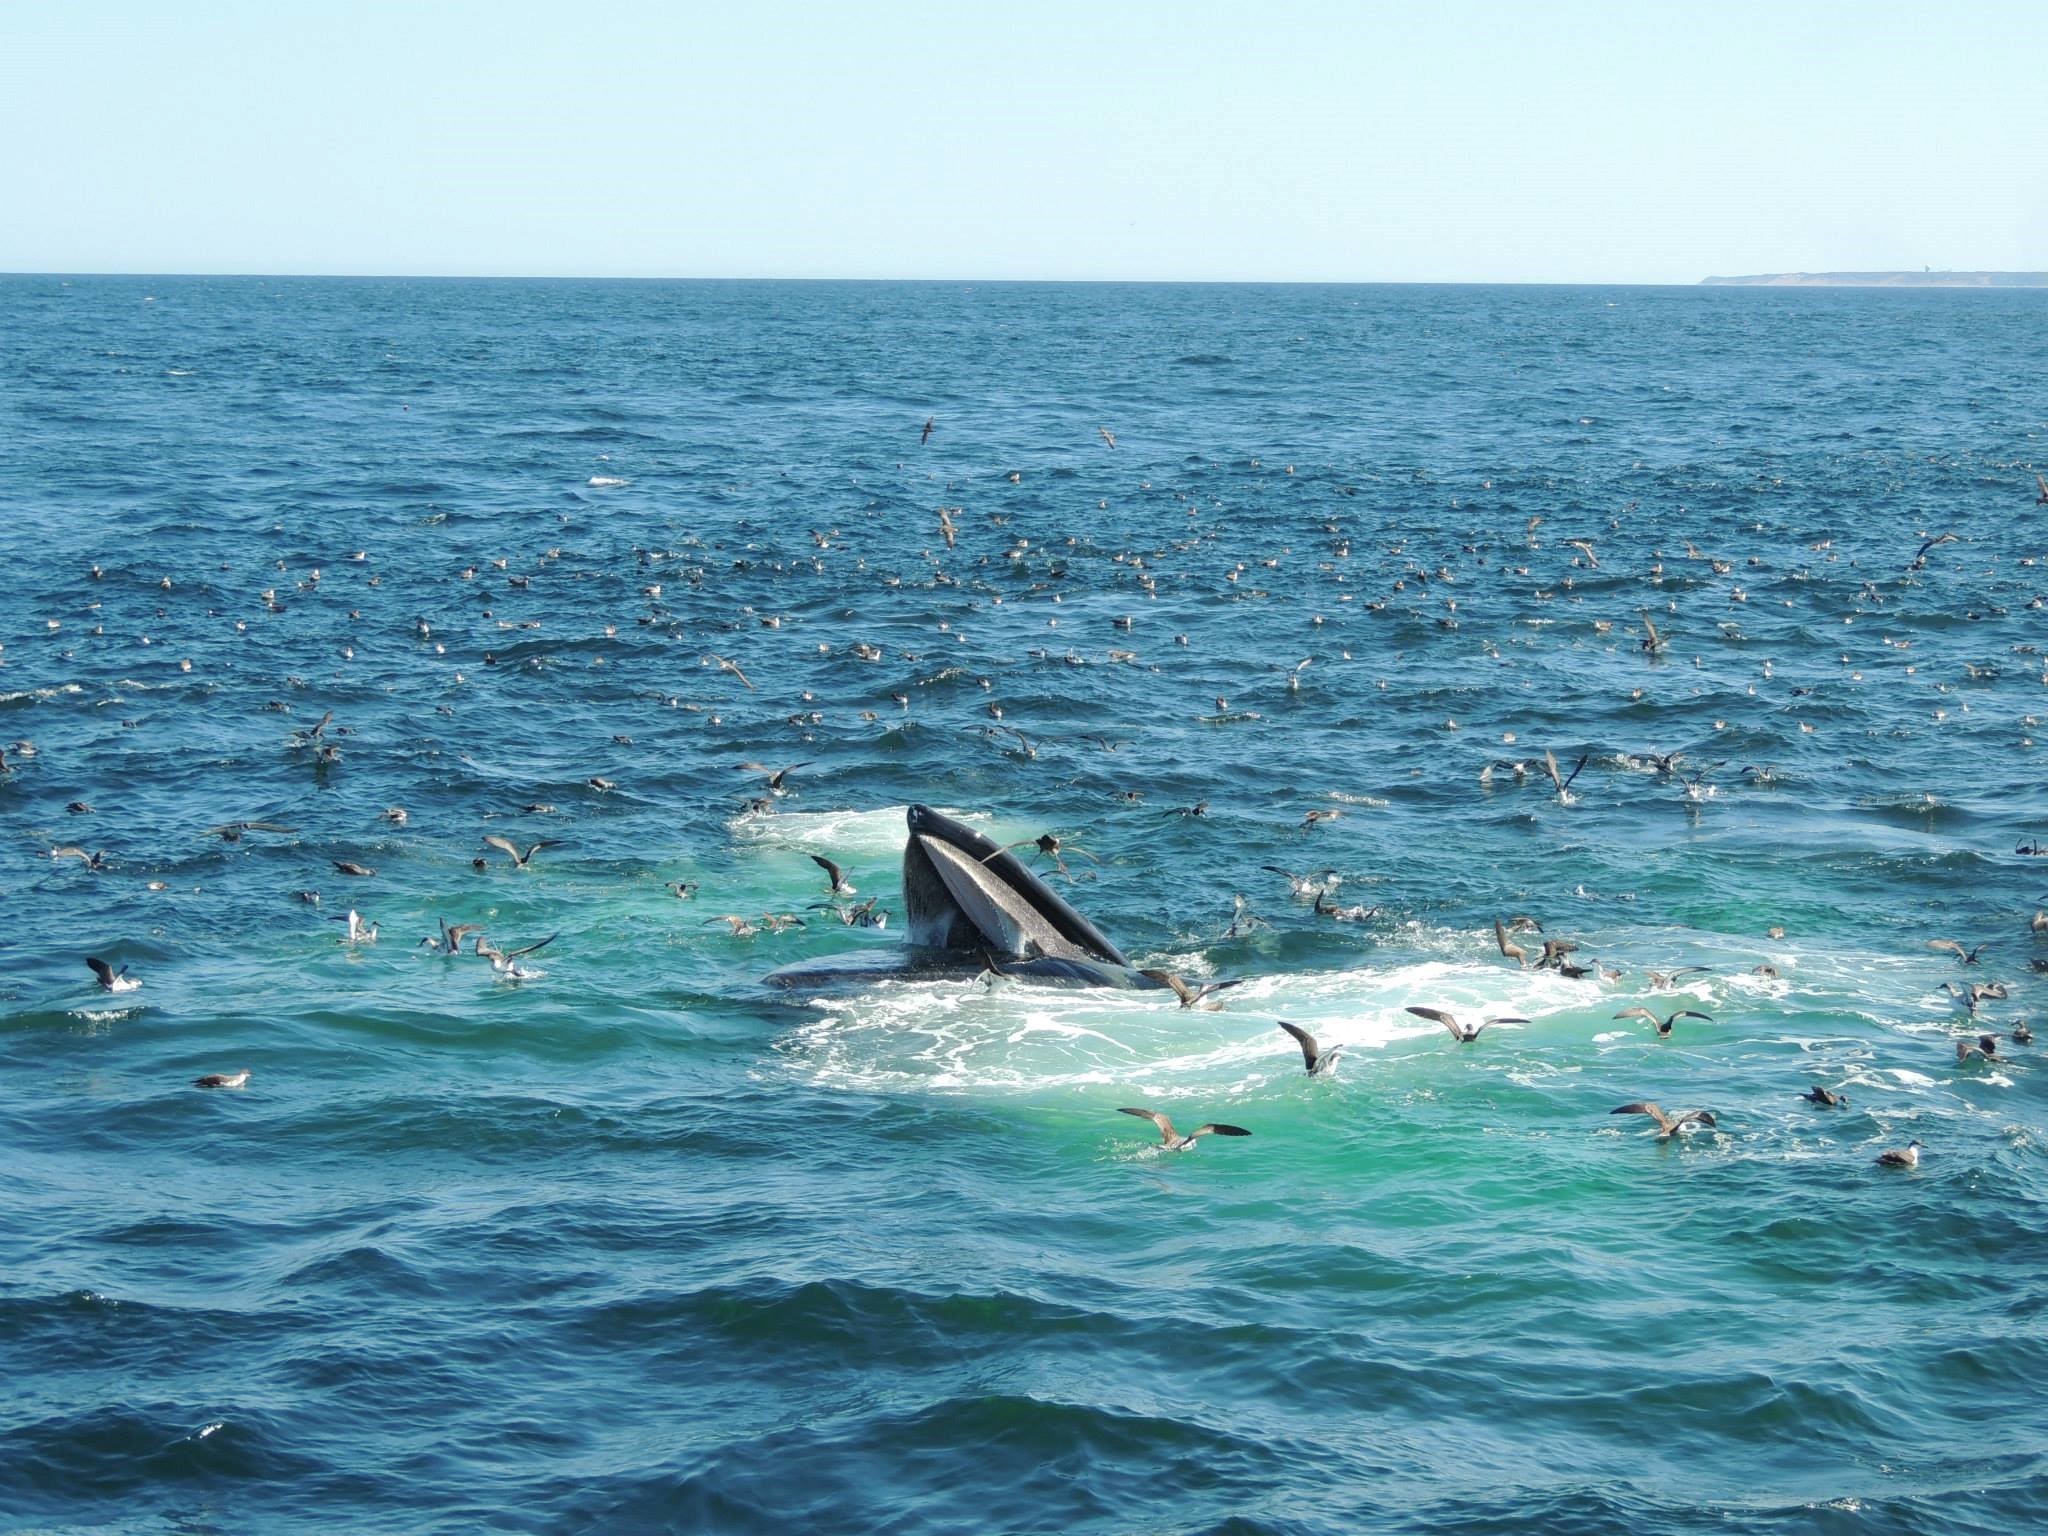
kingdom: Animalia
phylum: Chordata
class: Aves
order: Procellariiformes
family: Procellariidae
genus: Puffinus
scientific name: Puffinus gravis
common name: Great shearwater
